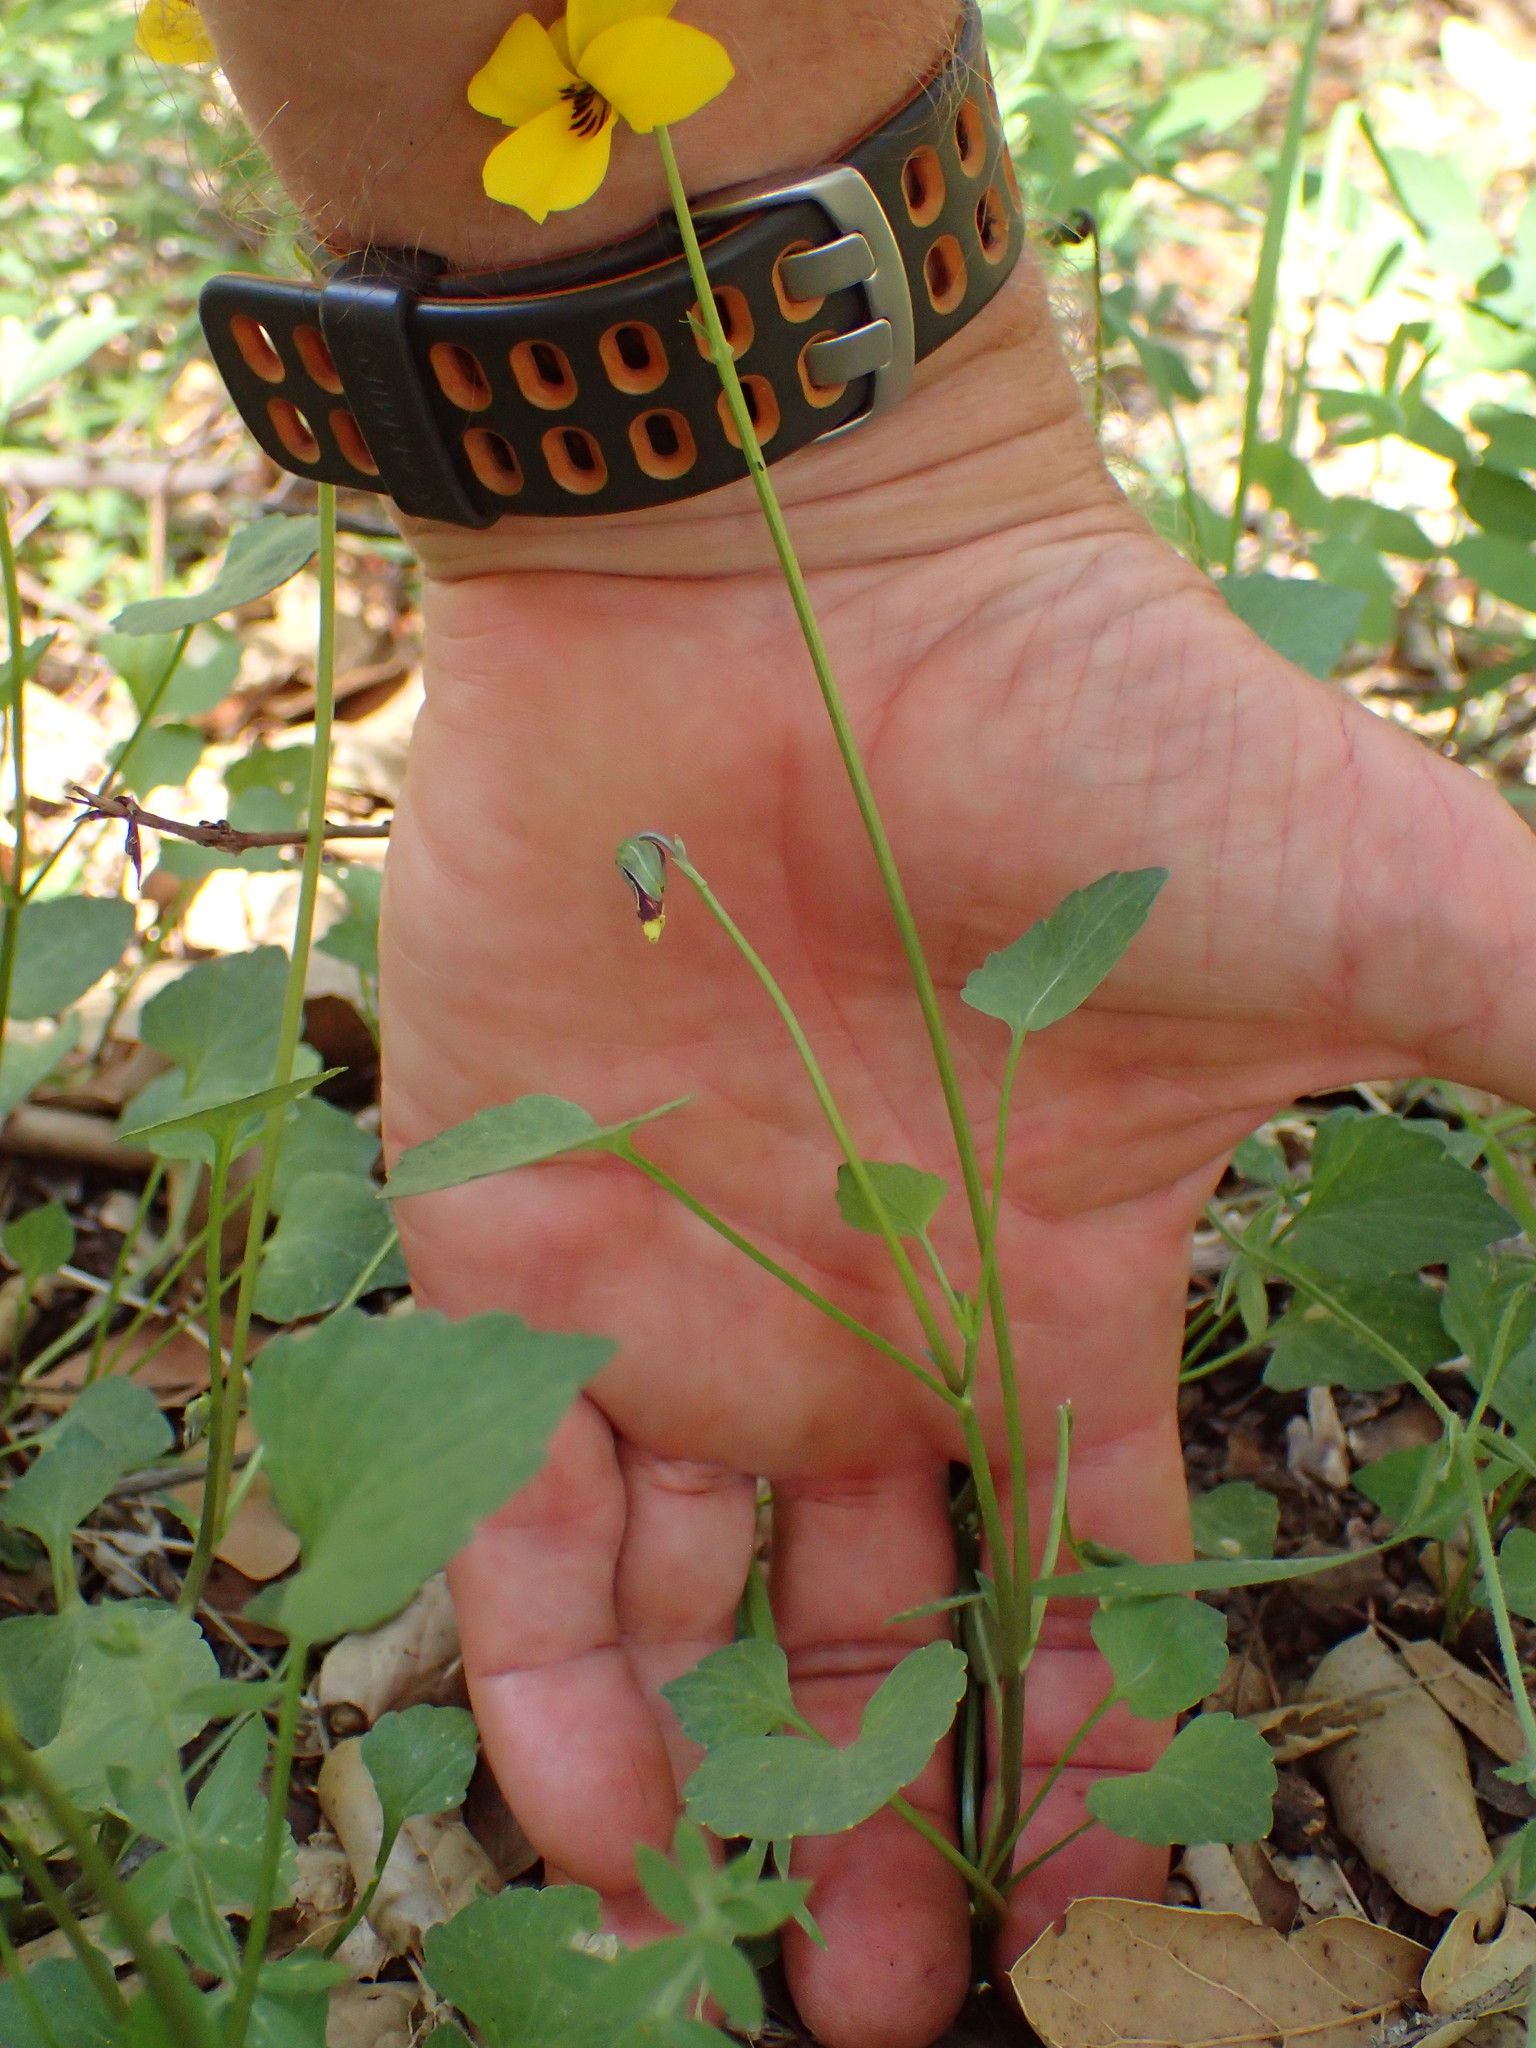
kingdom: Plantae
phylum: Tracheophyta
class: Magnoliopsida
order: Malpighiales
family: Violaceae
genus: Viola
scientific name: Viola pedunculata
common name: California golden violet
